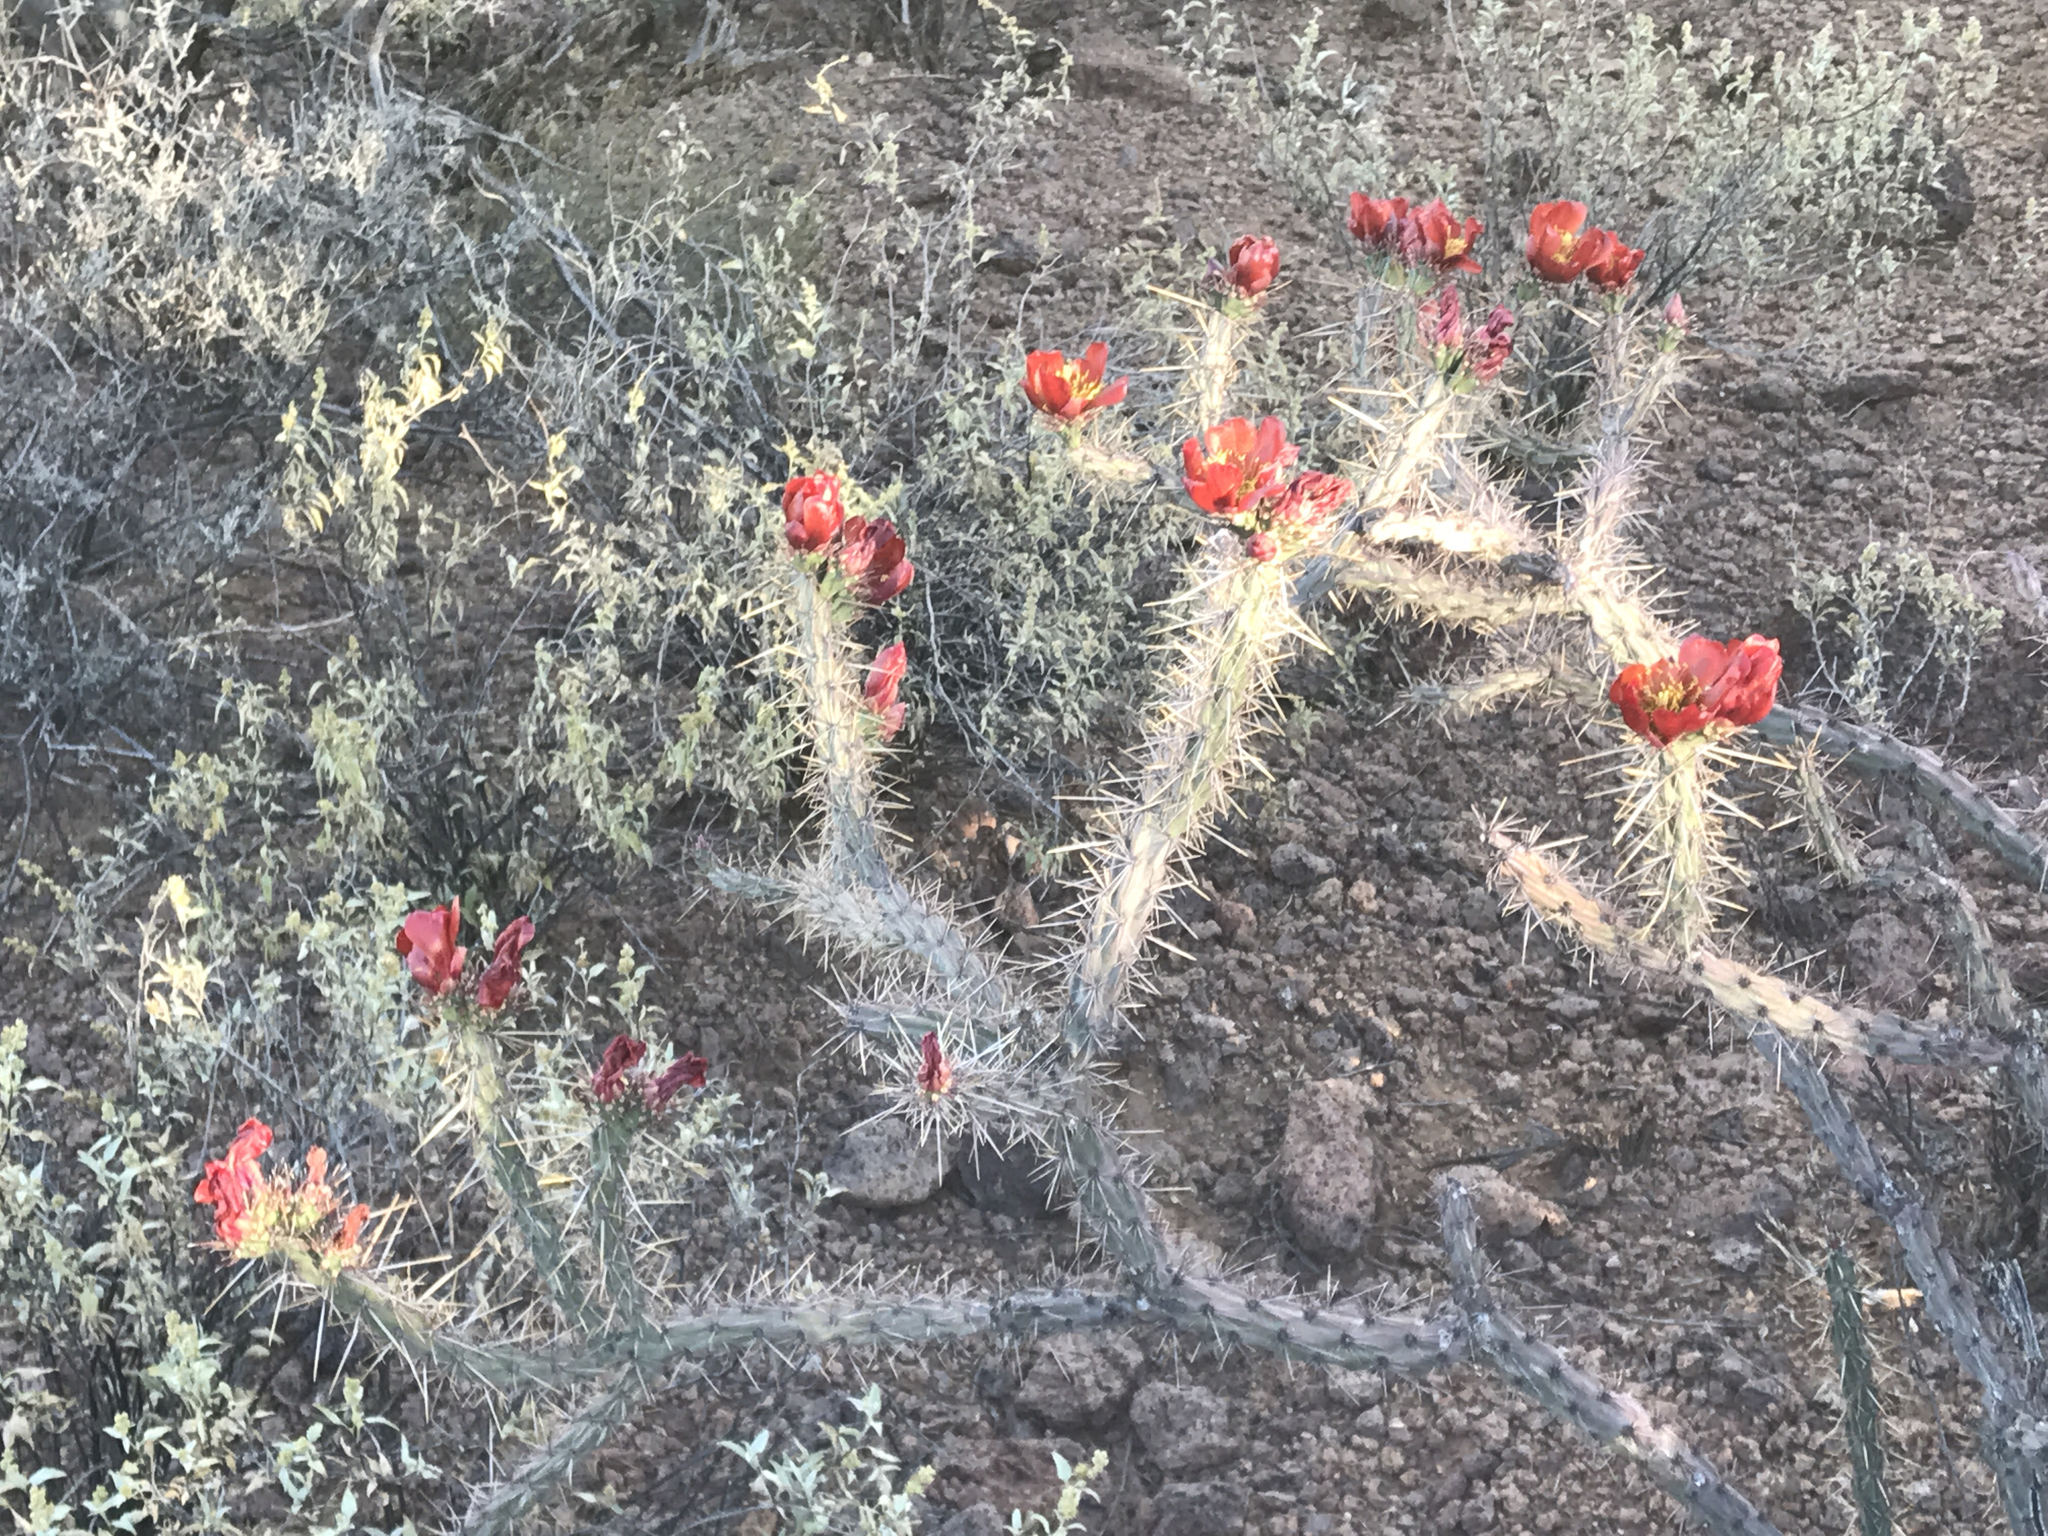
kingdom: Plantae
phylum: Tracheophyta
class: Magnoliopsida
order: Caryophyllales
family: Cactaceae
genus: Cylindropuntia
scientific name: Cylindropuntia thurberi
